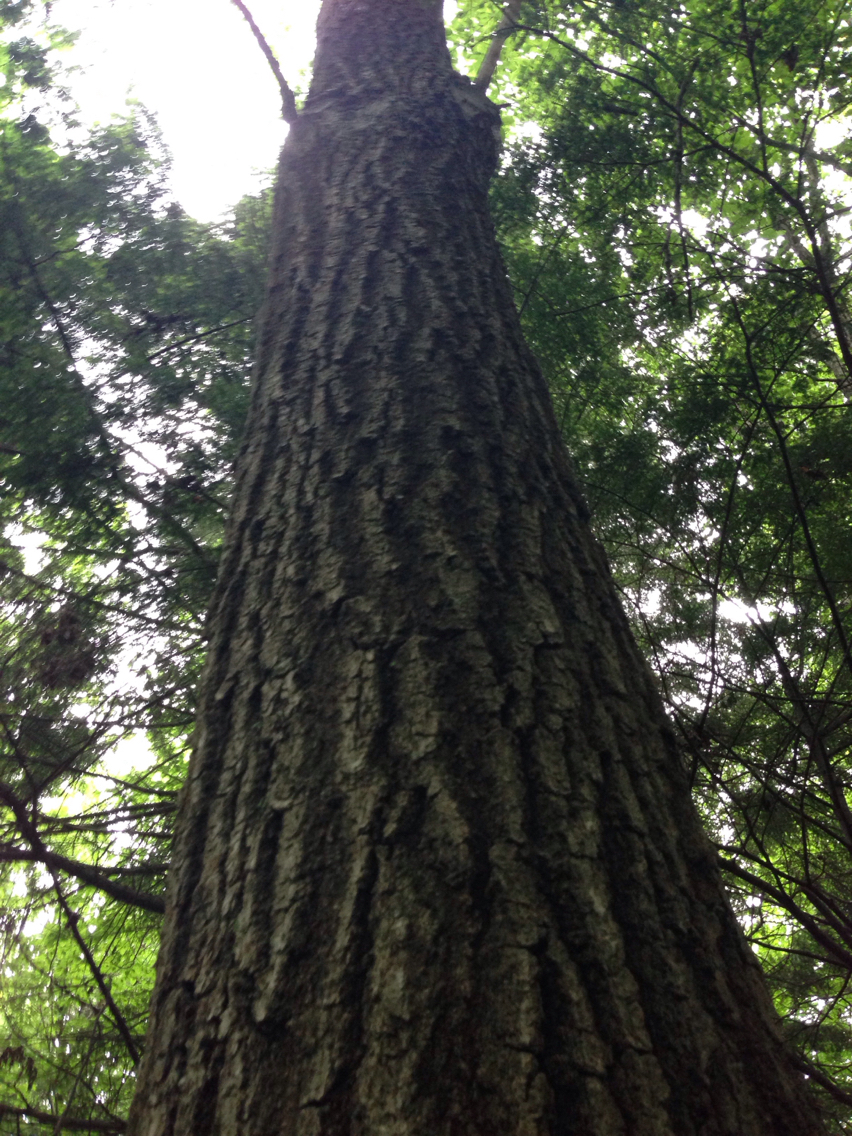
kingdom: Plantae
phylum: Tracheophyta
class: Magnoliopsida
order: Fagales
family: Fagaceae
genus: Quercus
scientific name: Quercus rubra
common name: Red oak
